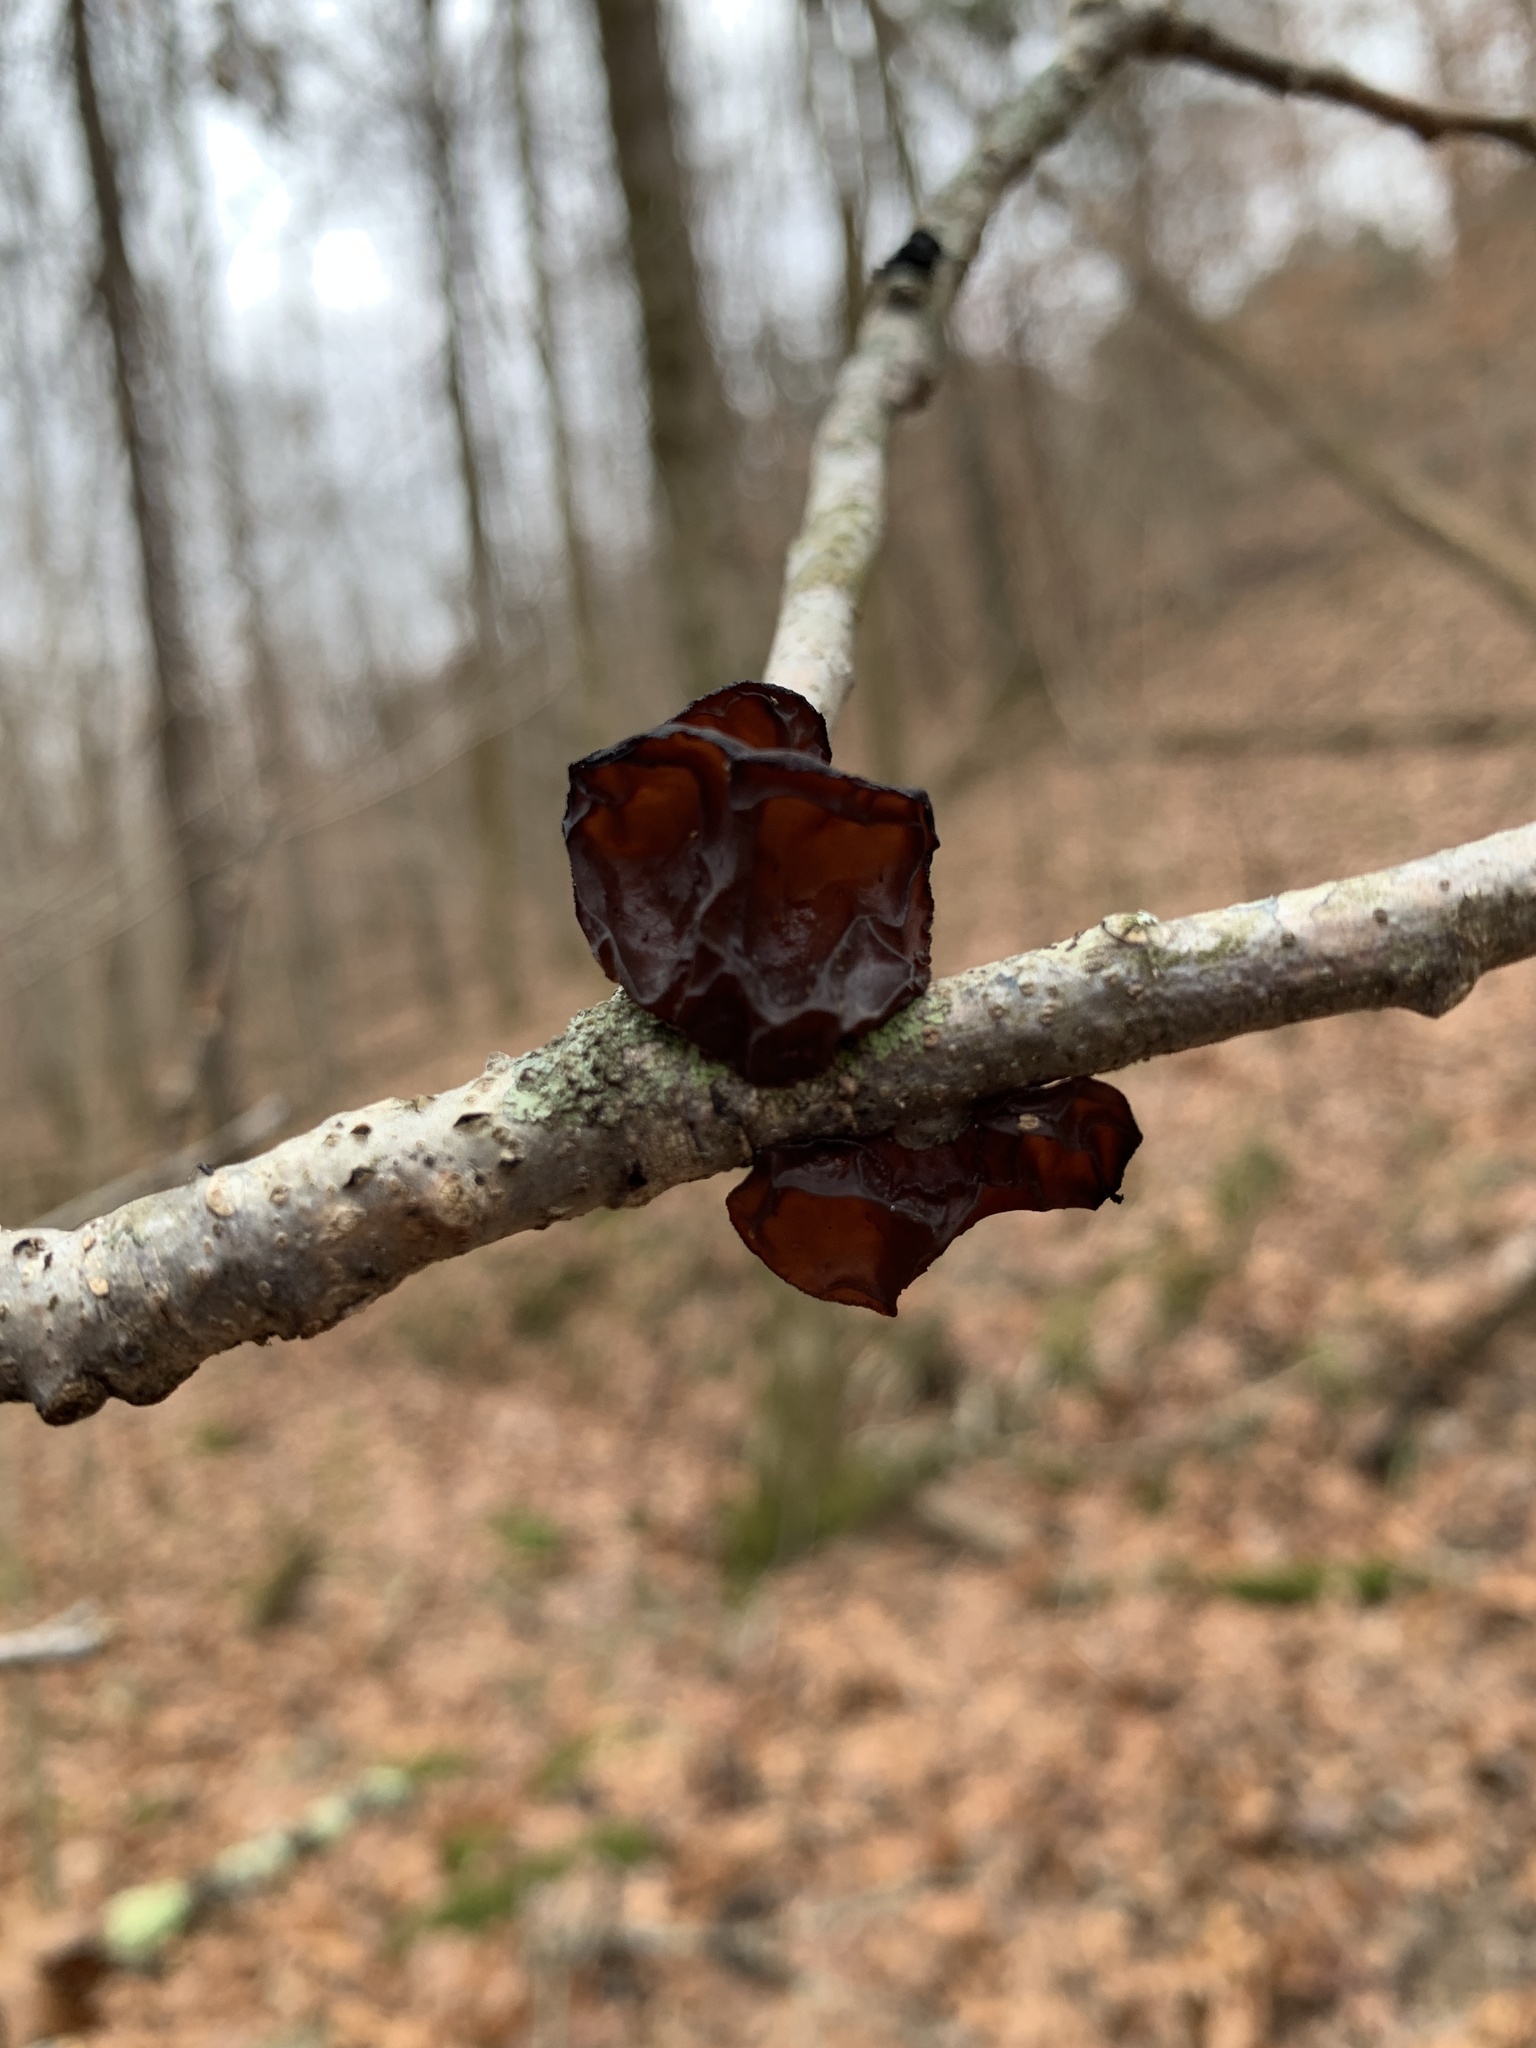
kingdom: Fungi
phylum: Basidiomycota
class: Agaricomycetes
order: Auriculariales
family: Auriculariaceae
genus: Exidia
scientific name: Exidia
